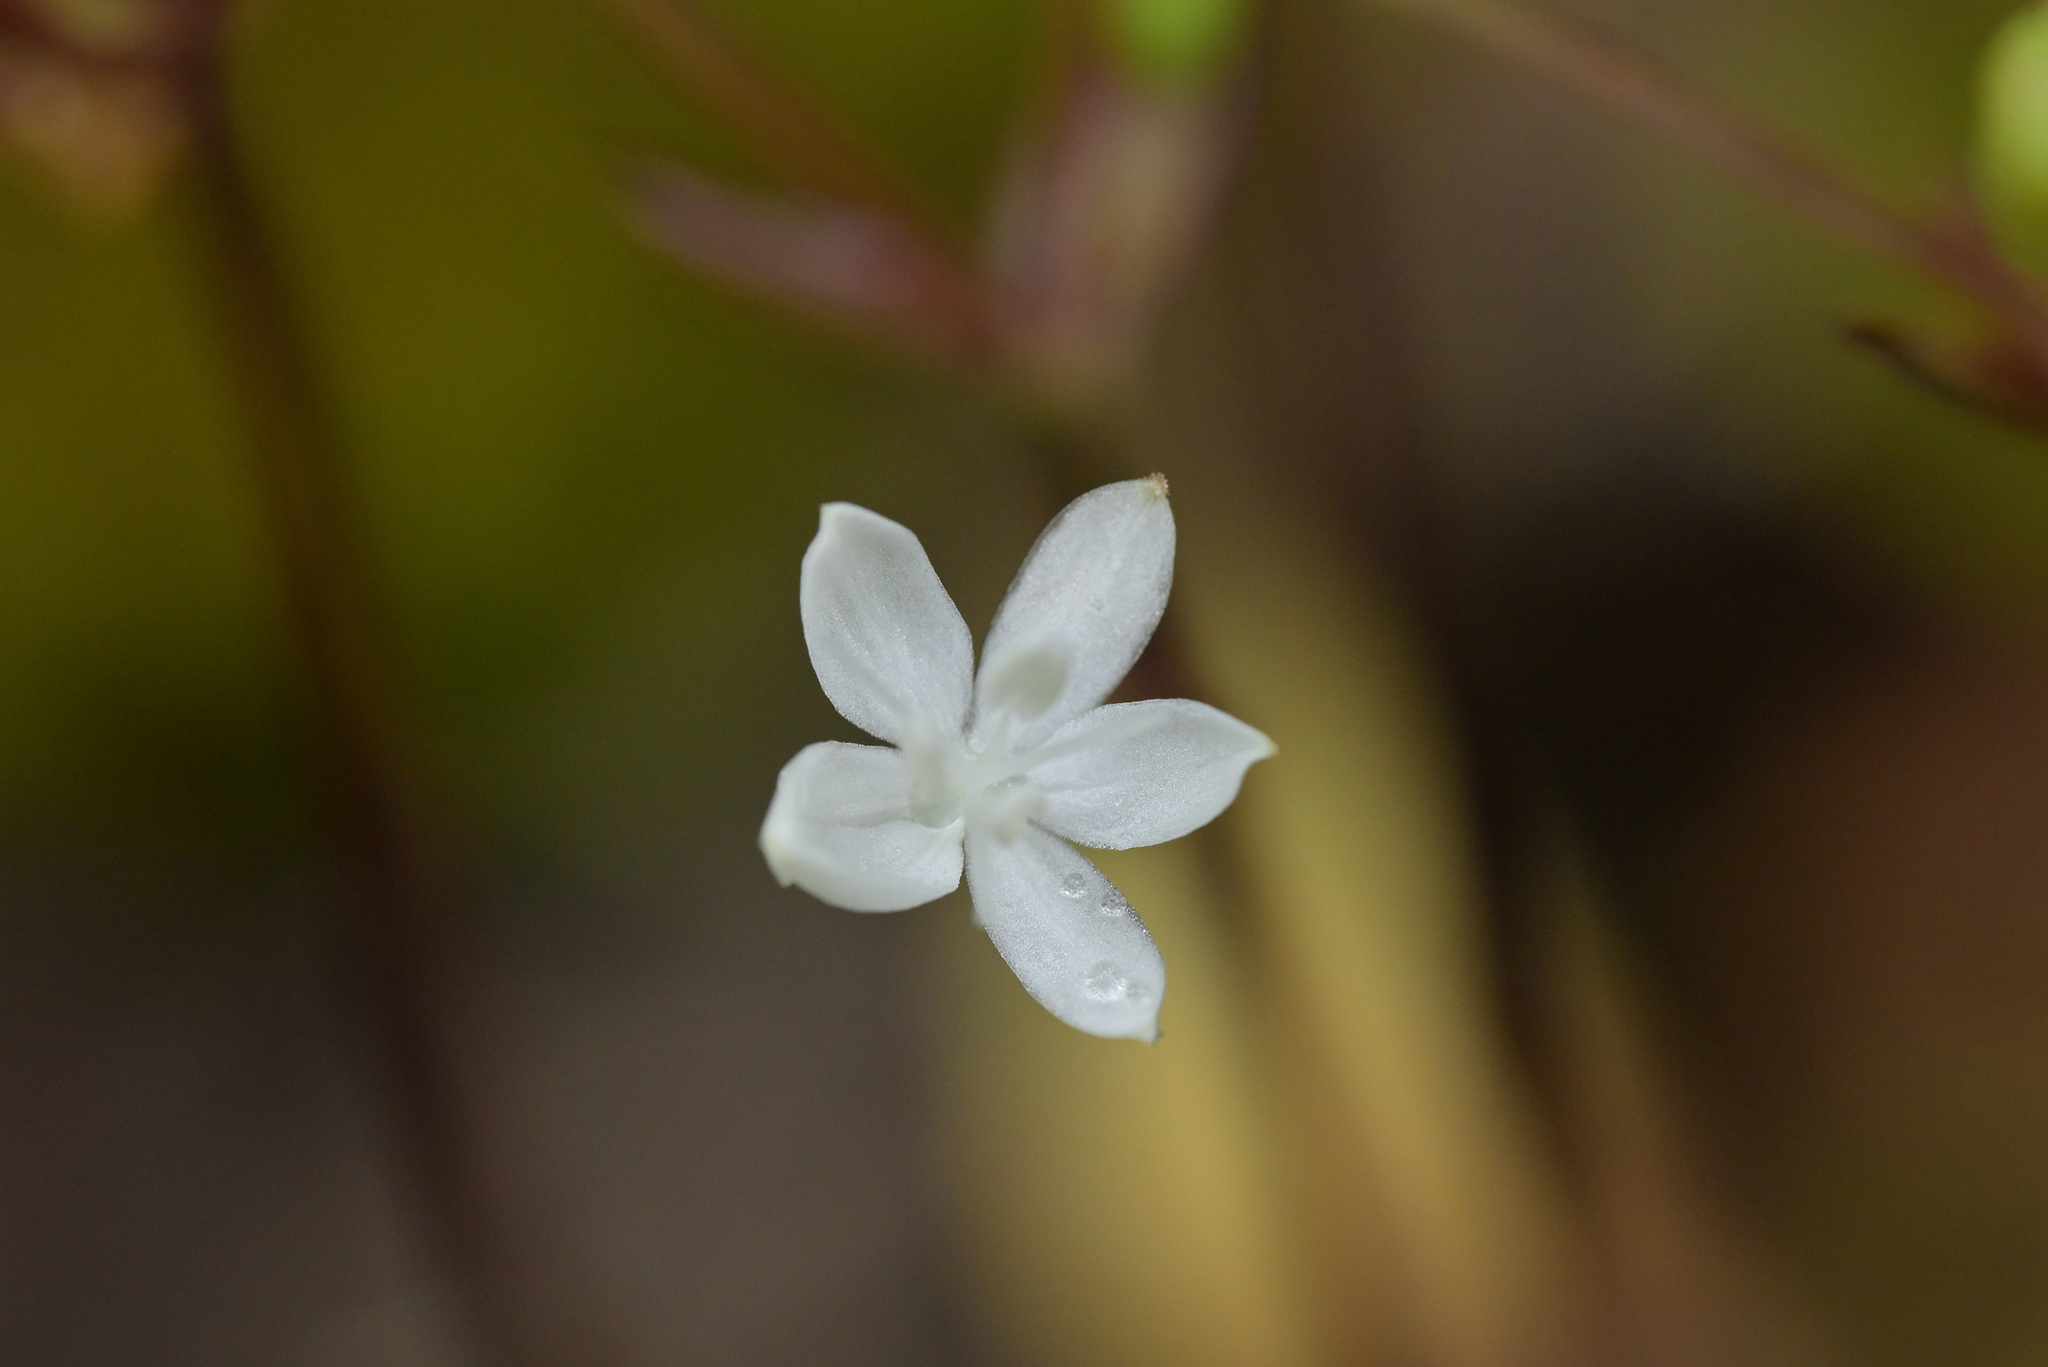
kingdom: Plantae
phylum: Tracheophyta
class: Liliopsida
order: Asparagales
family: Iridaceae
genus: Libertia
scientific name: Libertia micrantha
